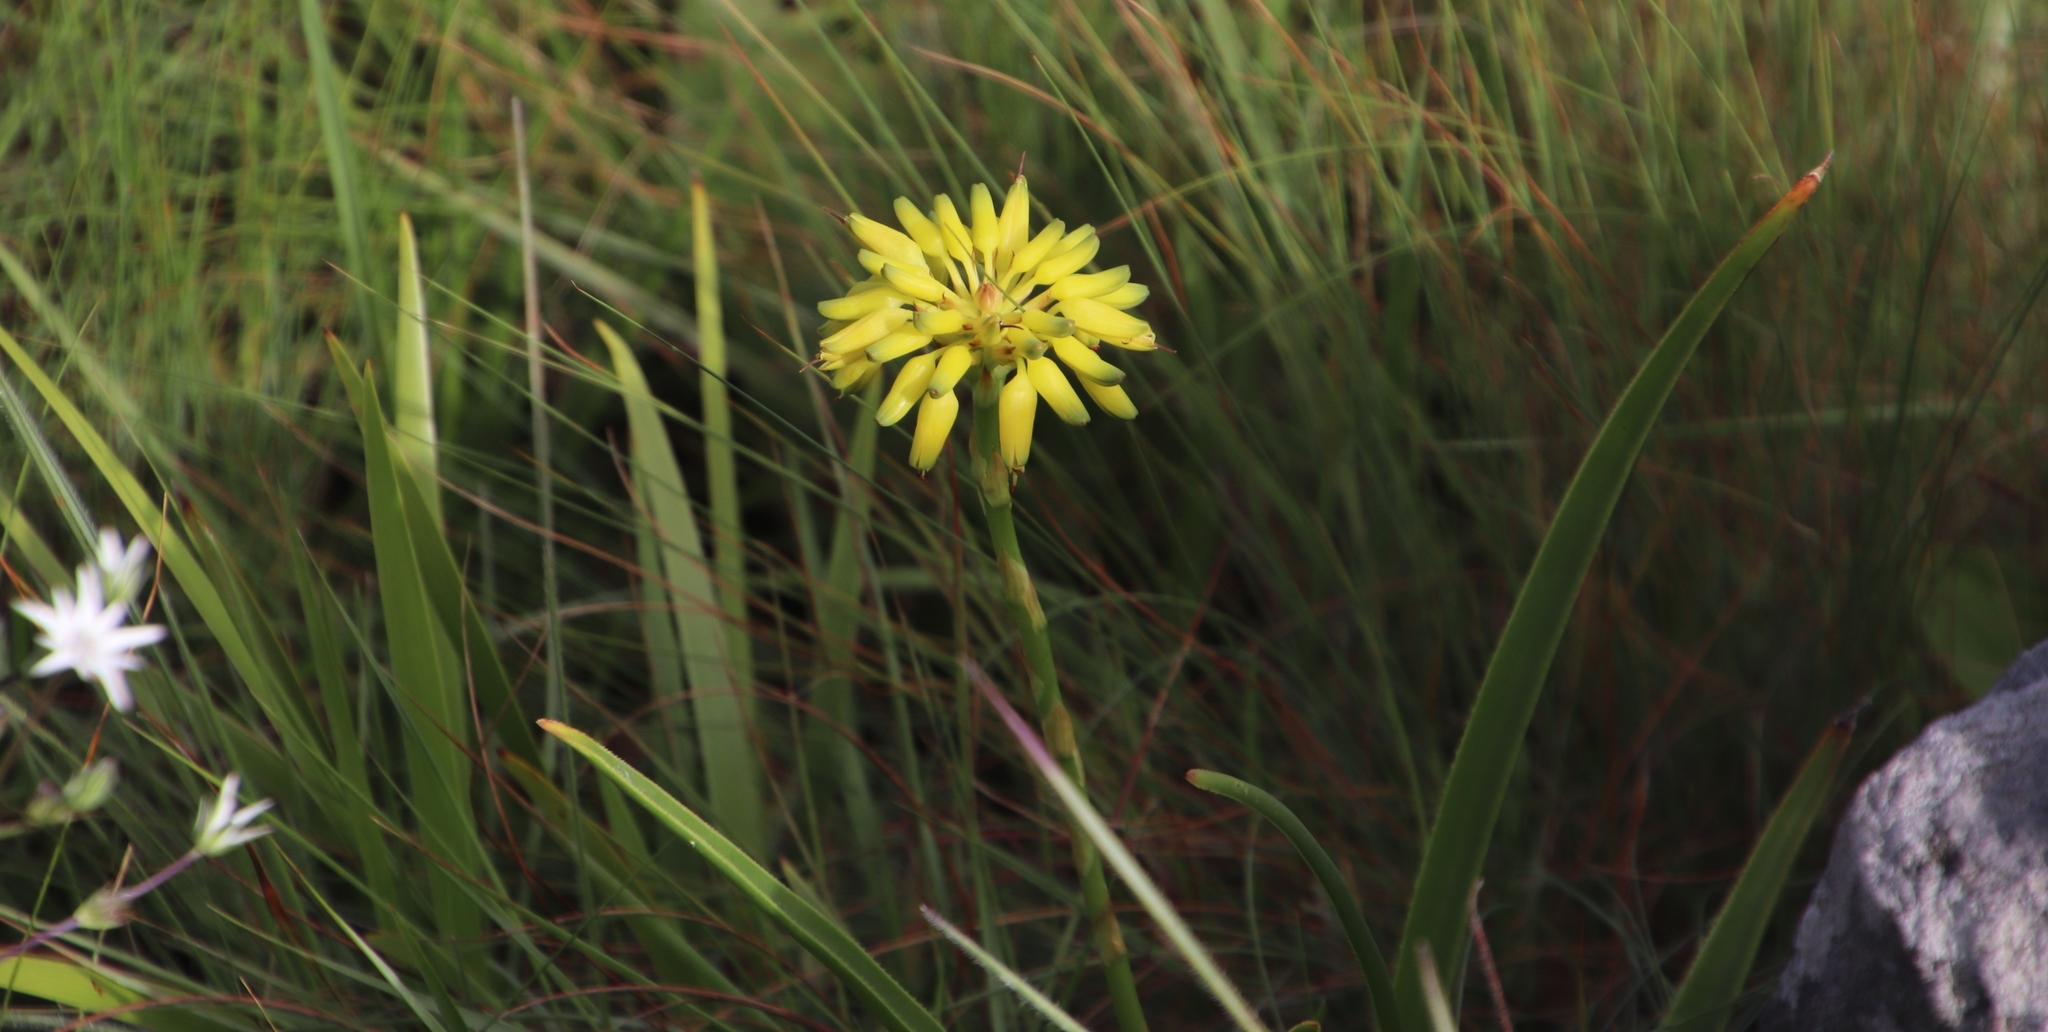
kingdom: Plantae
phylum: Tracheophyta
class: Liliopsida
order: Asparagales
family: Asphodelaceae
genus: Aloe
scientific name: Aloe craibii
